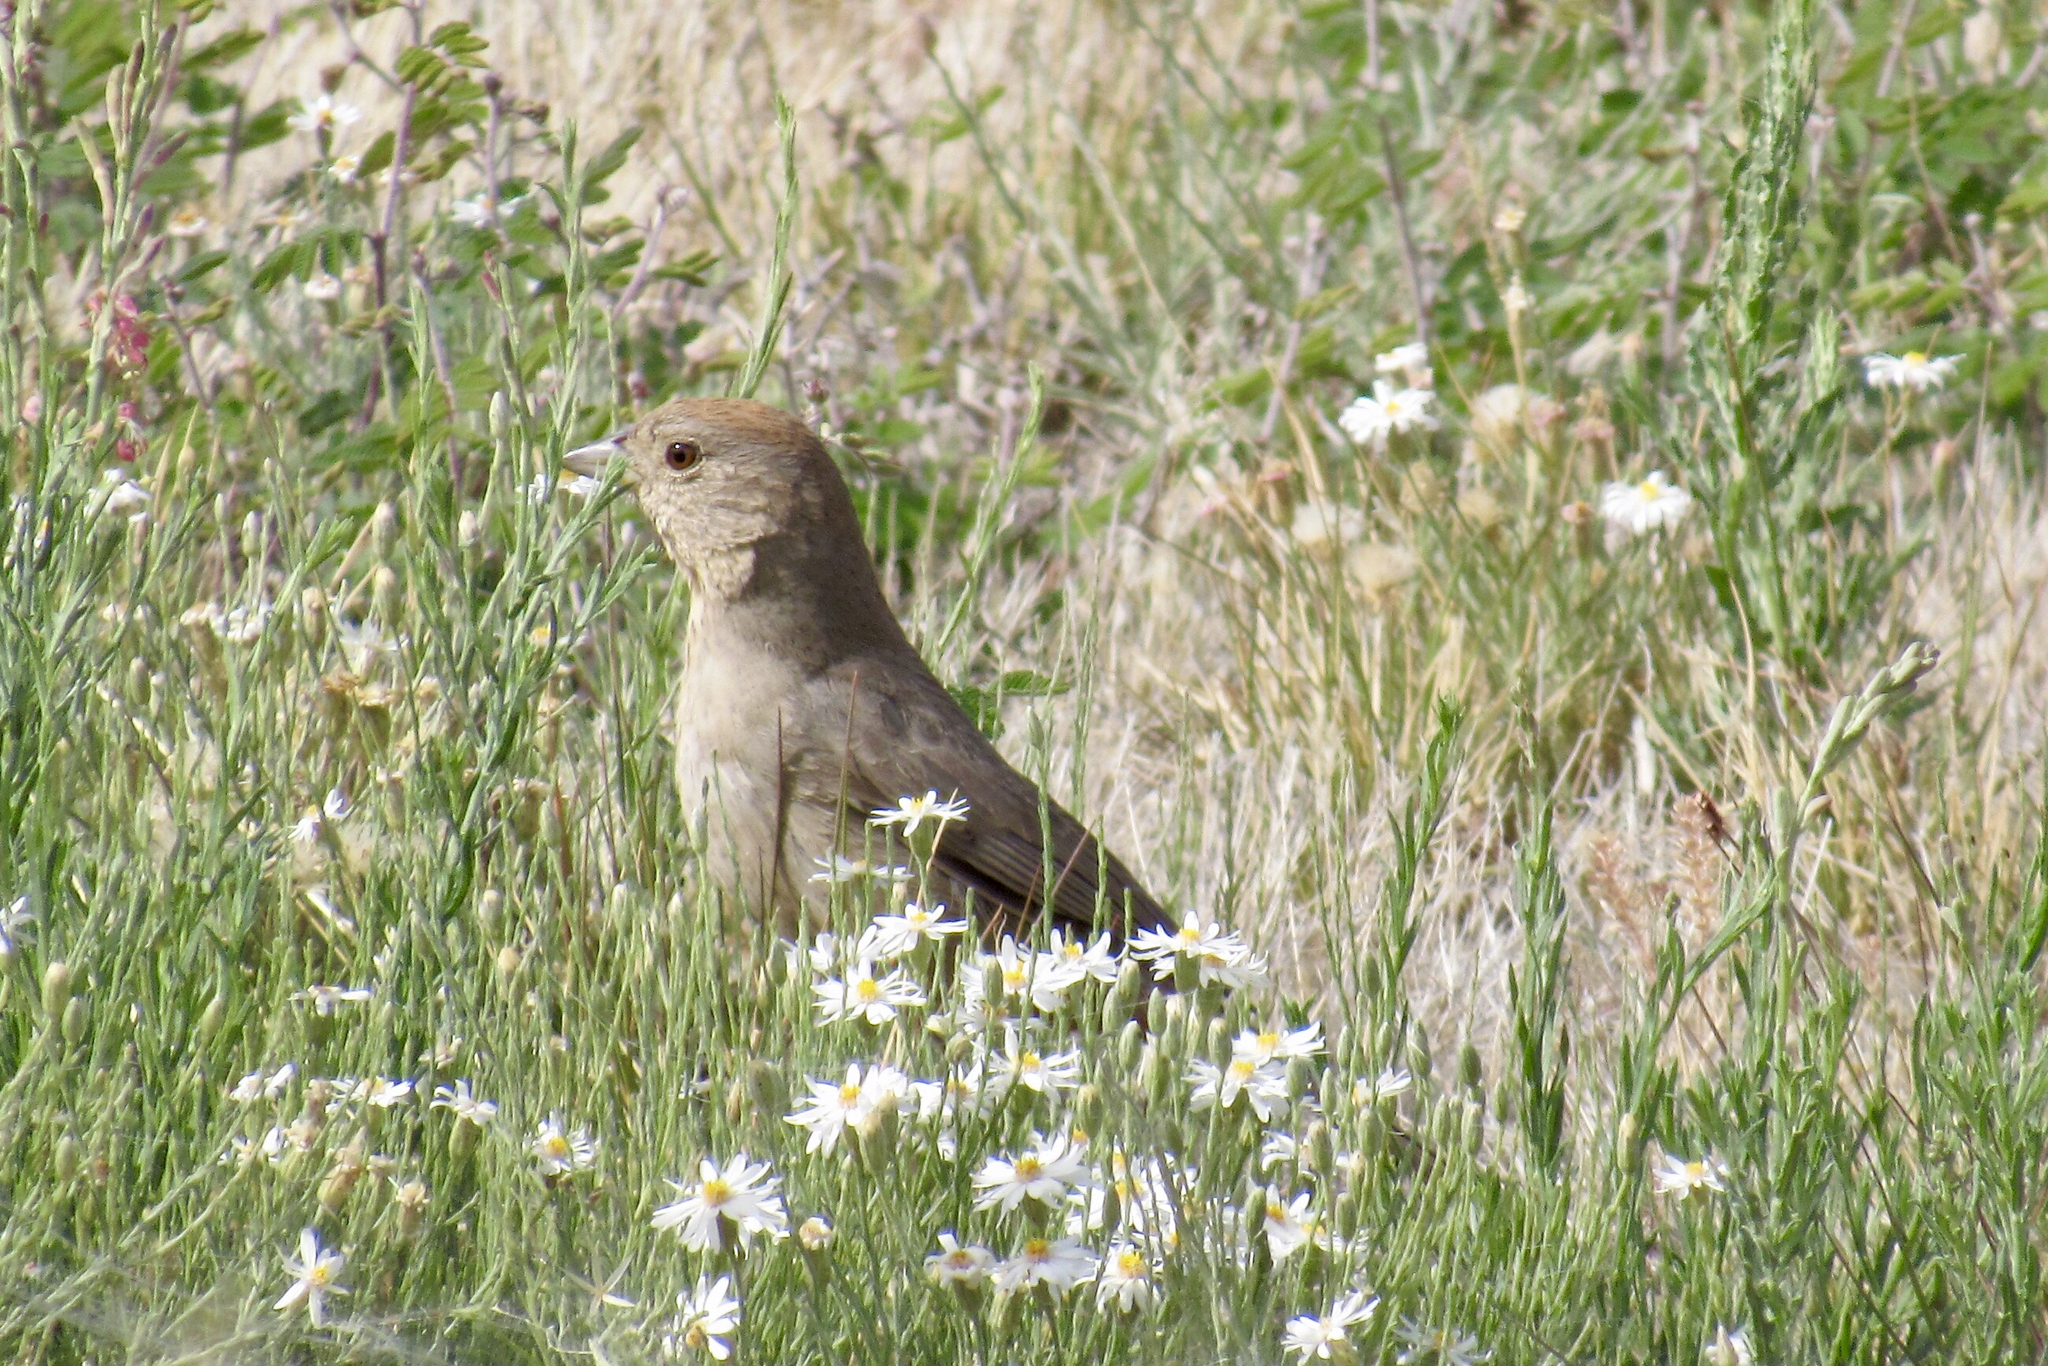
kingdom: Animalia
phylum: Chordata
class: Aves
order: Passeriformes
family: Passerellidae
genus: Melozone
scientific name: Melozone fusca
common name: Canyon towhee
